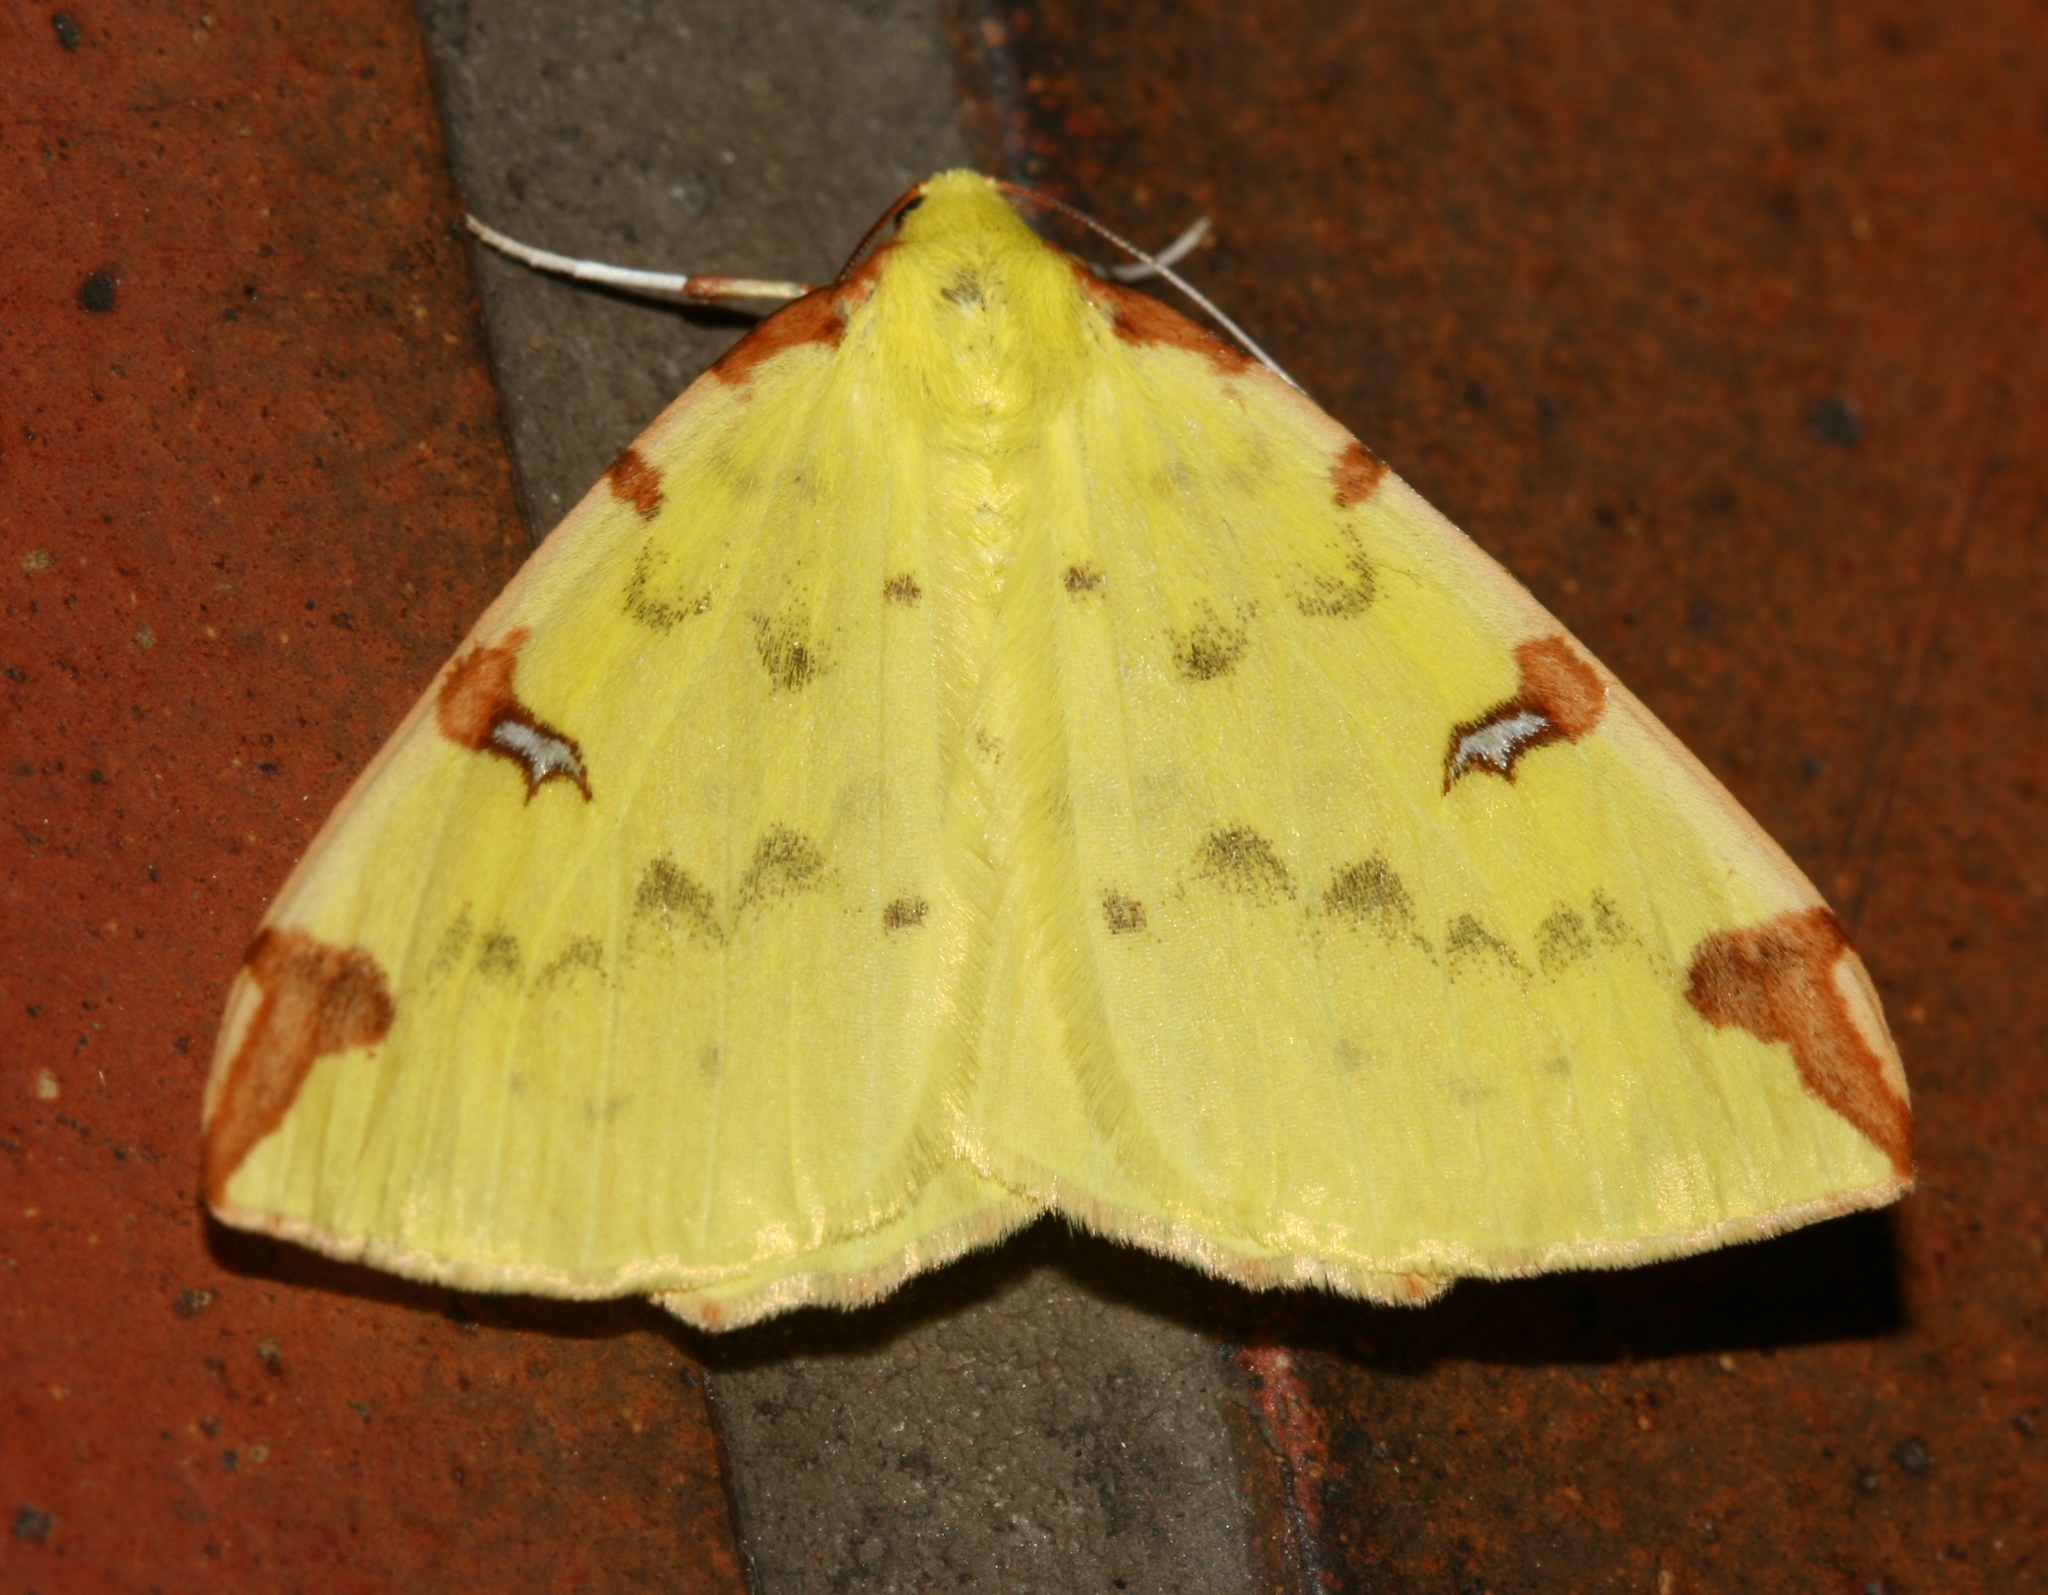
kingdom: Animalia
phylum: Arthropoda
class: Insecta
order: Lepidoptera
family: Geometridae
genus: Opisthograptis
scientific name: Opisthograptis luteolata
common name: Brimstone moth
